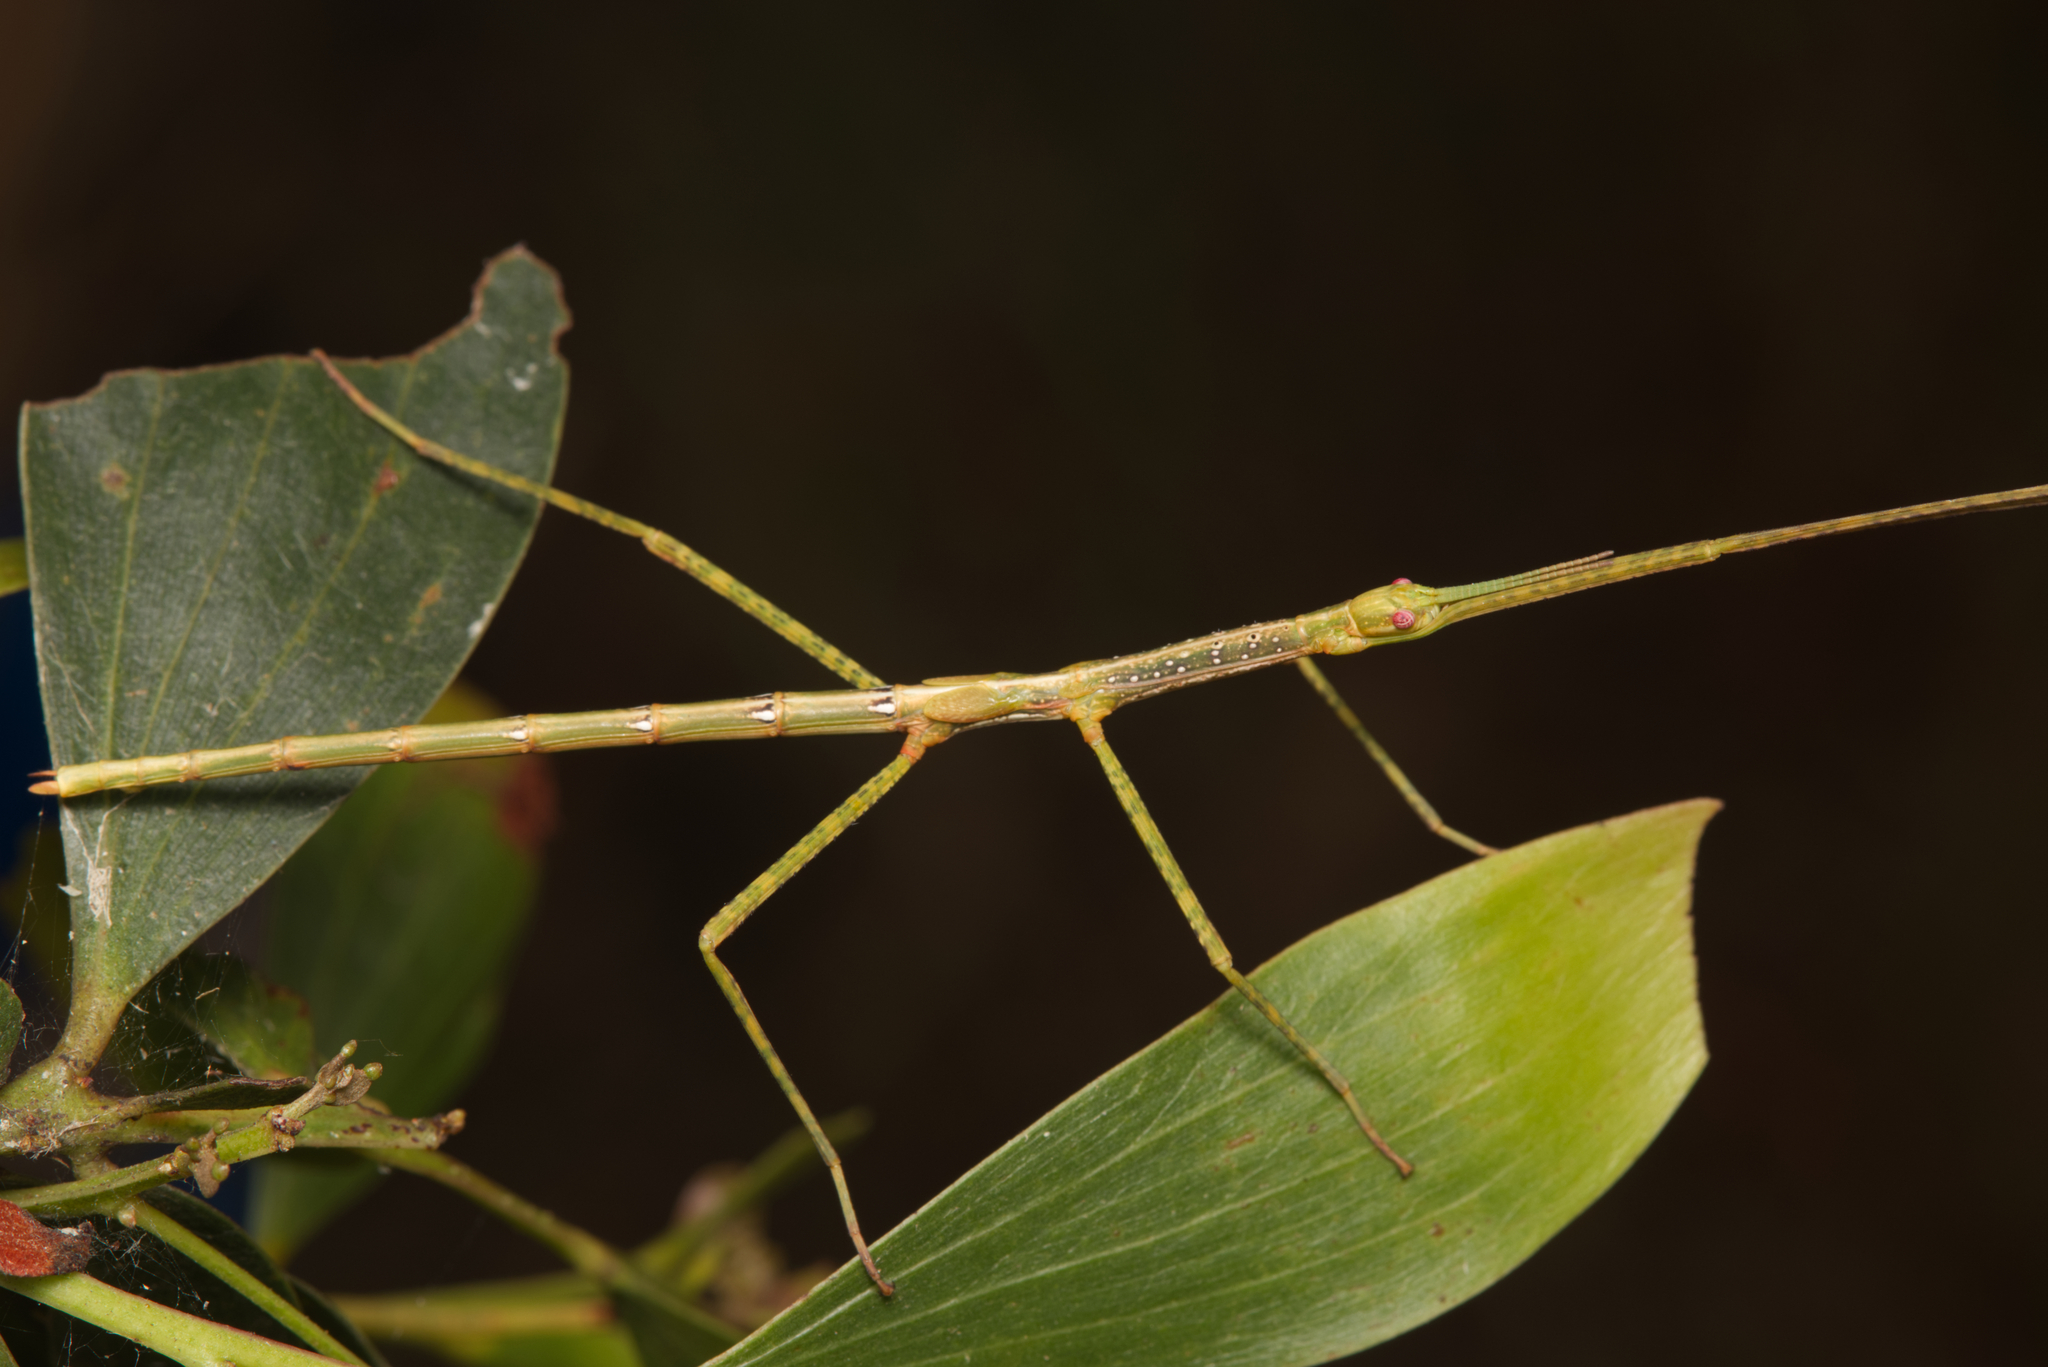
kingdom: Animalia
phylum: Arthropoda
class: Insecta
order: Phasmida
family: Phasmatidae
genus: Anchiale
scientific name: Anchiale austrotessulata
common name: Tessellated stick-insect
